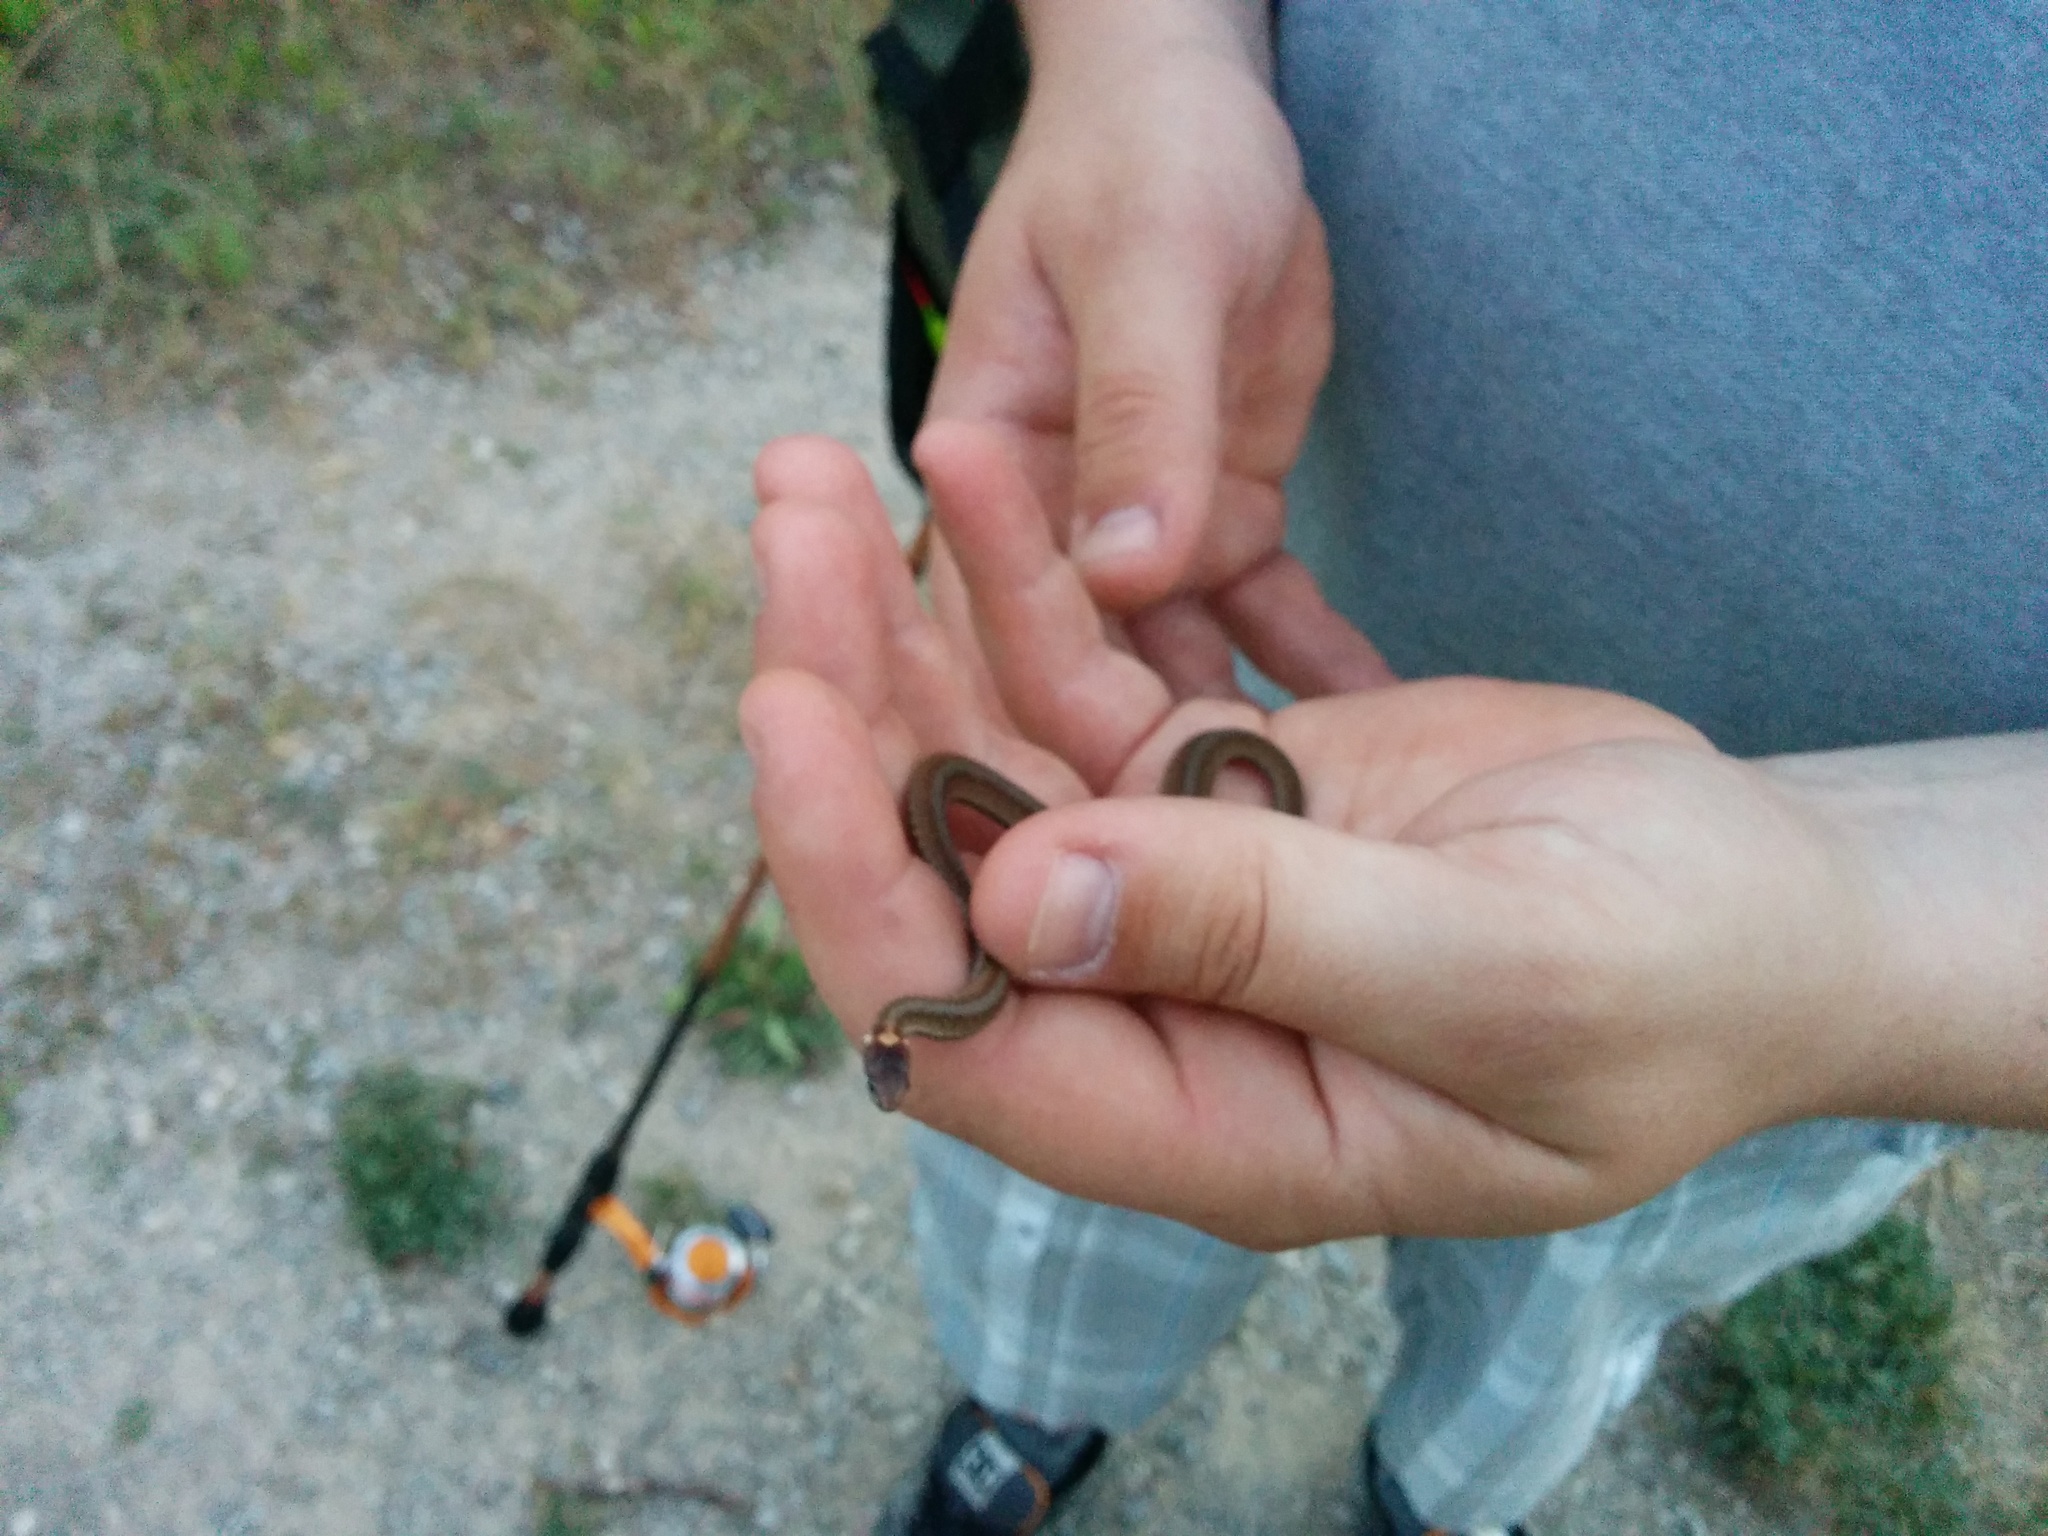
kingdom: Animalia
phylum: Chordata
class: Squamata
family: Colubridae
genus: Storeria
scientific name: Storeria occipitomaculata
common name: Redbelly snake
